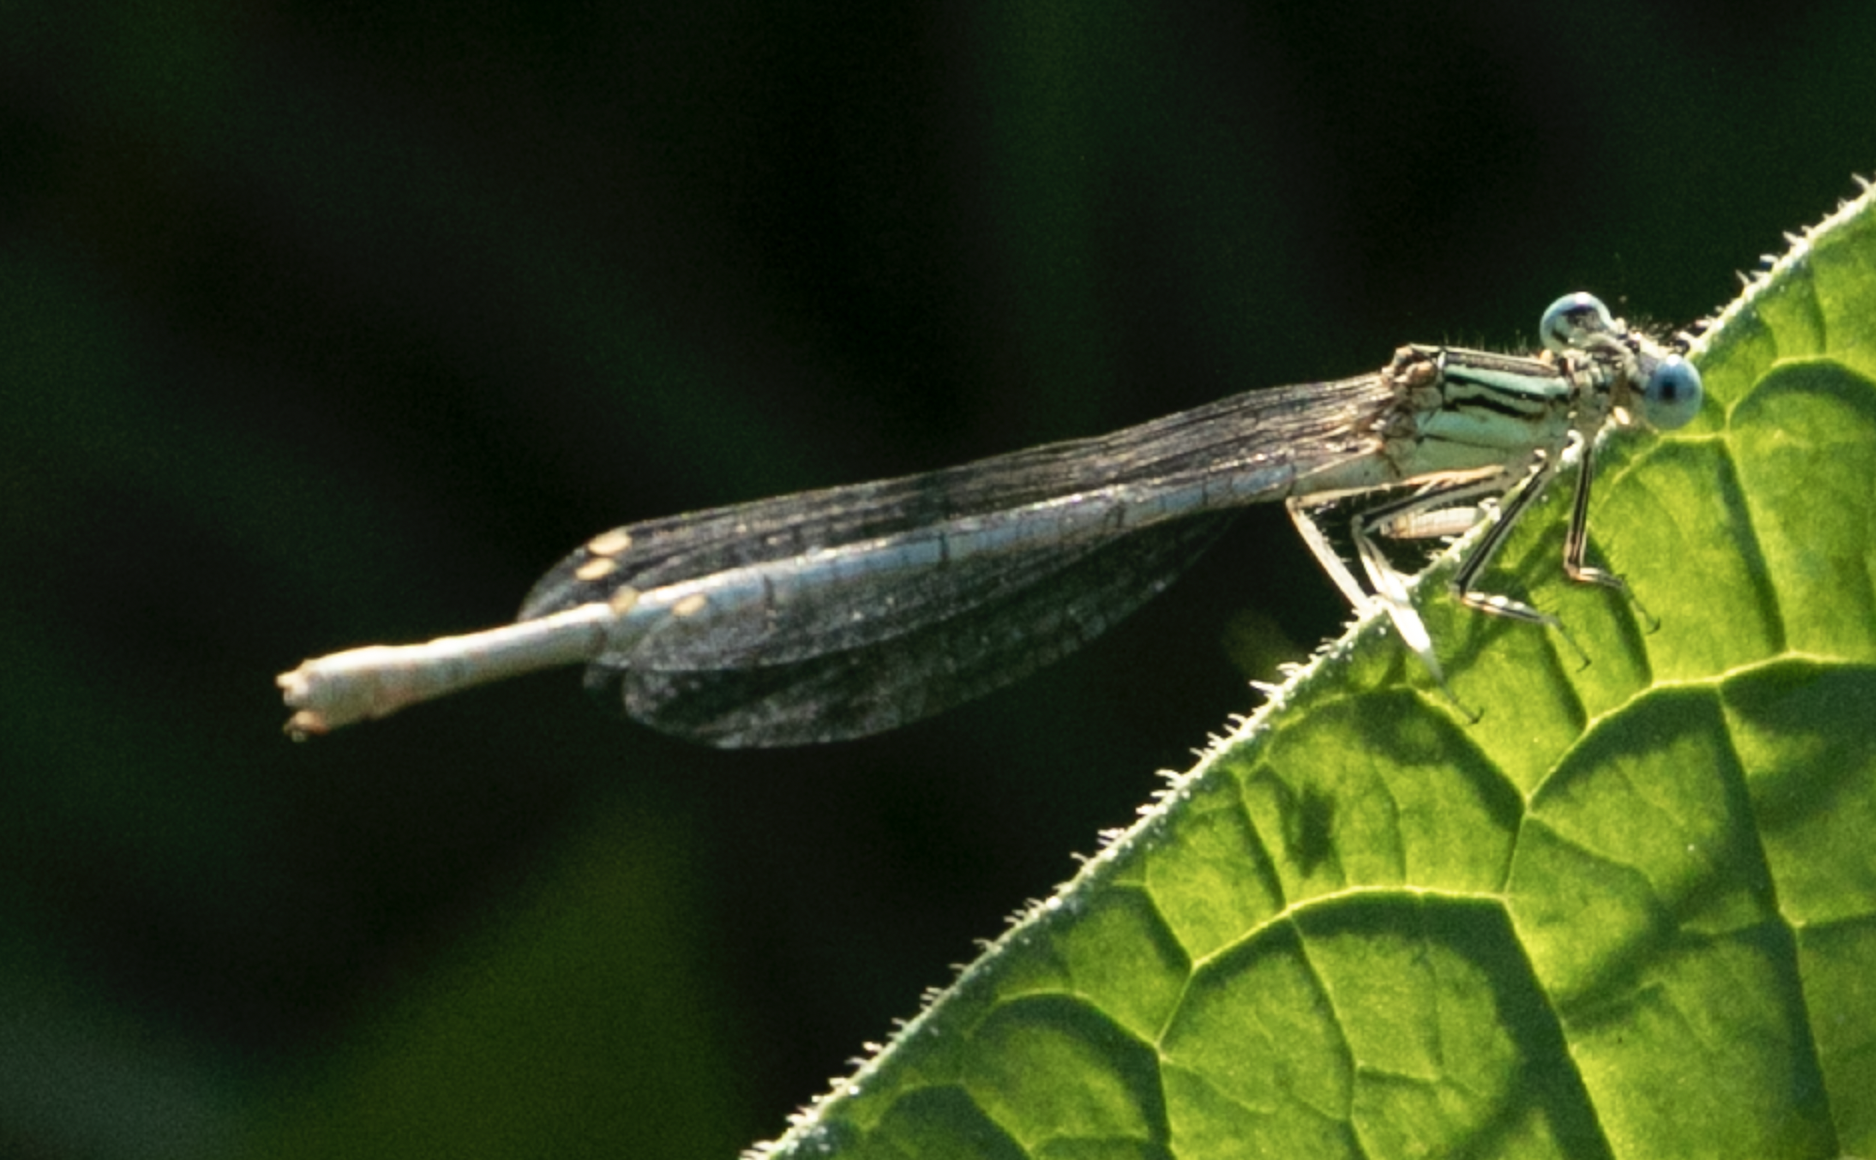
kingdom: Animalia
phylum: Arthropoda
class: Insecta
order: Odonata
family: Platycnemididae
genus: Platycnemis
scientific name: Platycnemis pennipes
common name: White-legged damselfly
